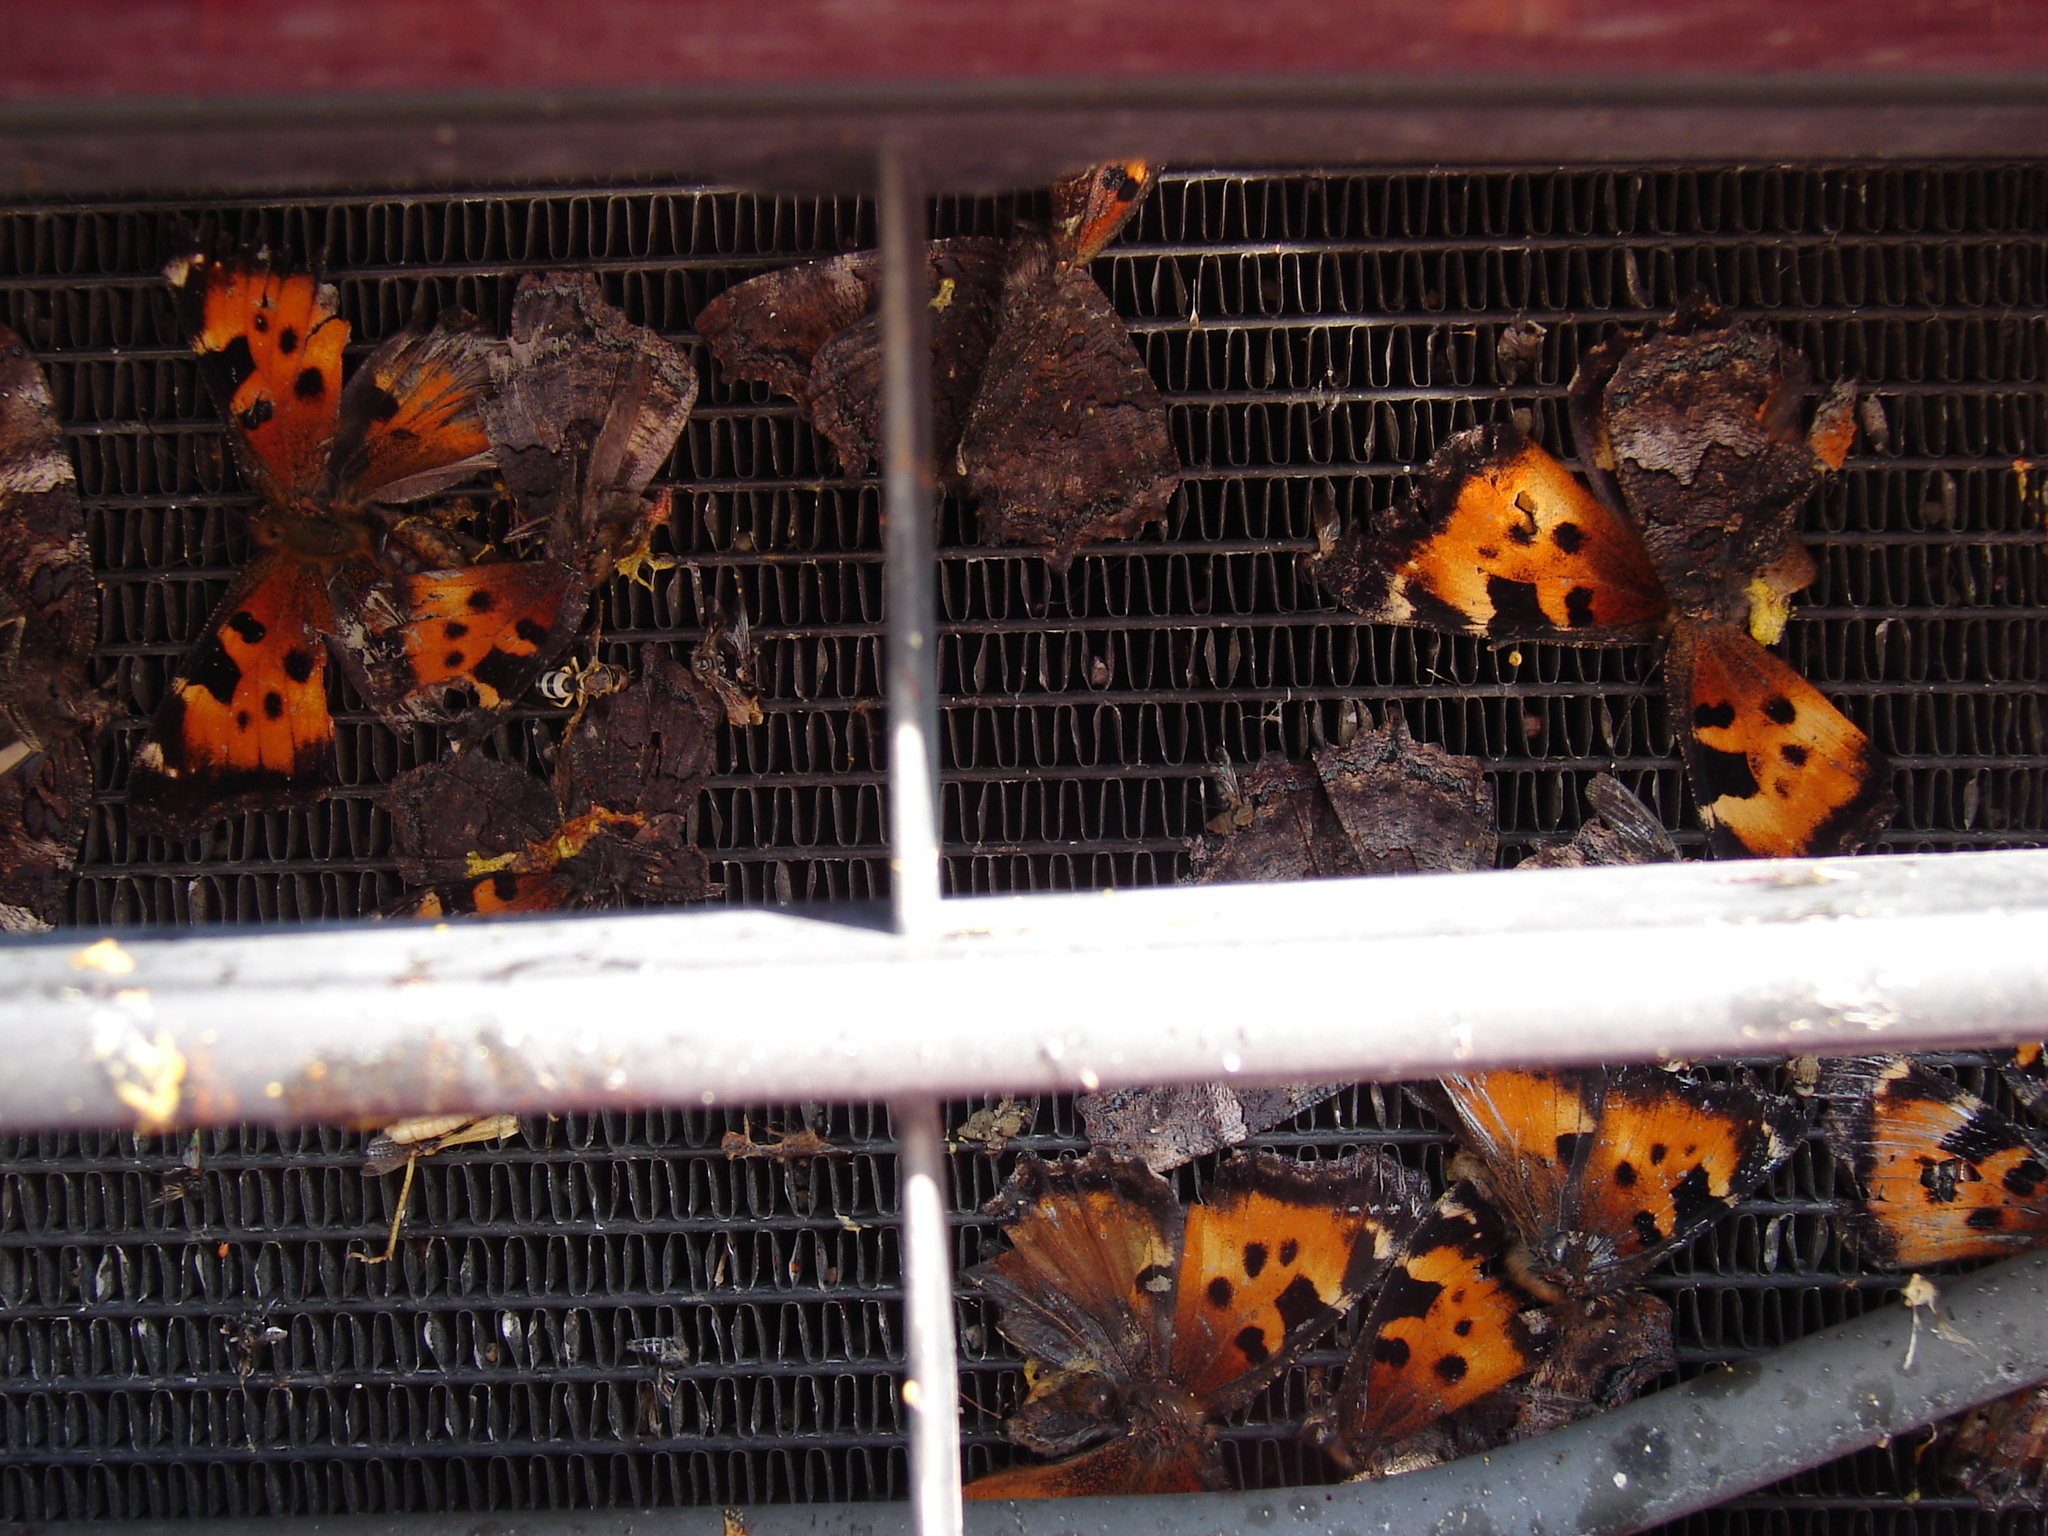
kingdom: Animalia
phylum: Arthropoda
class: Insecta
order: Lepidoptera
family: Nymphalidae
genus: Nymphalis
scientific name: Nymphalis californica
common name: California tortoiseshell
